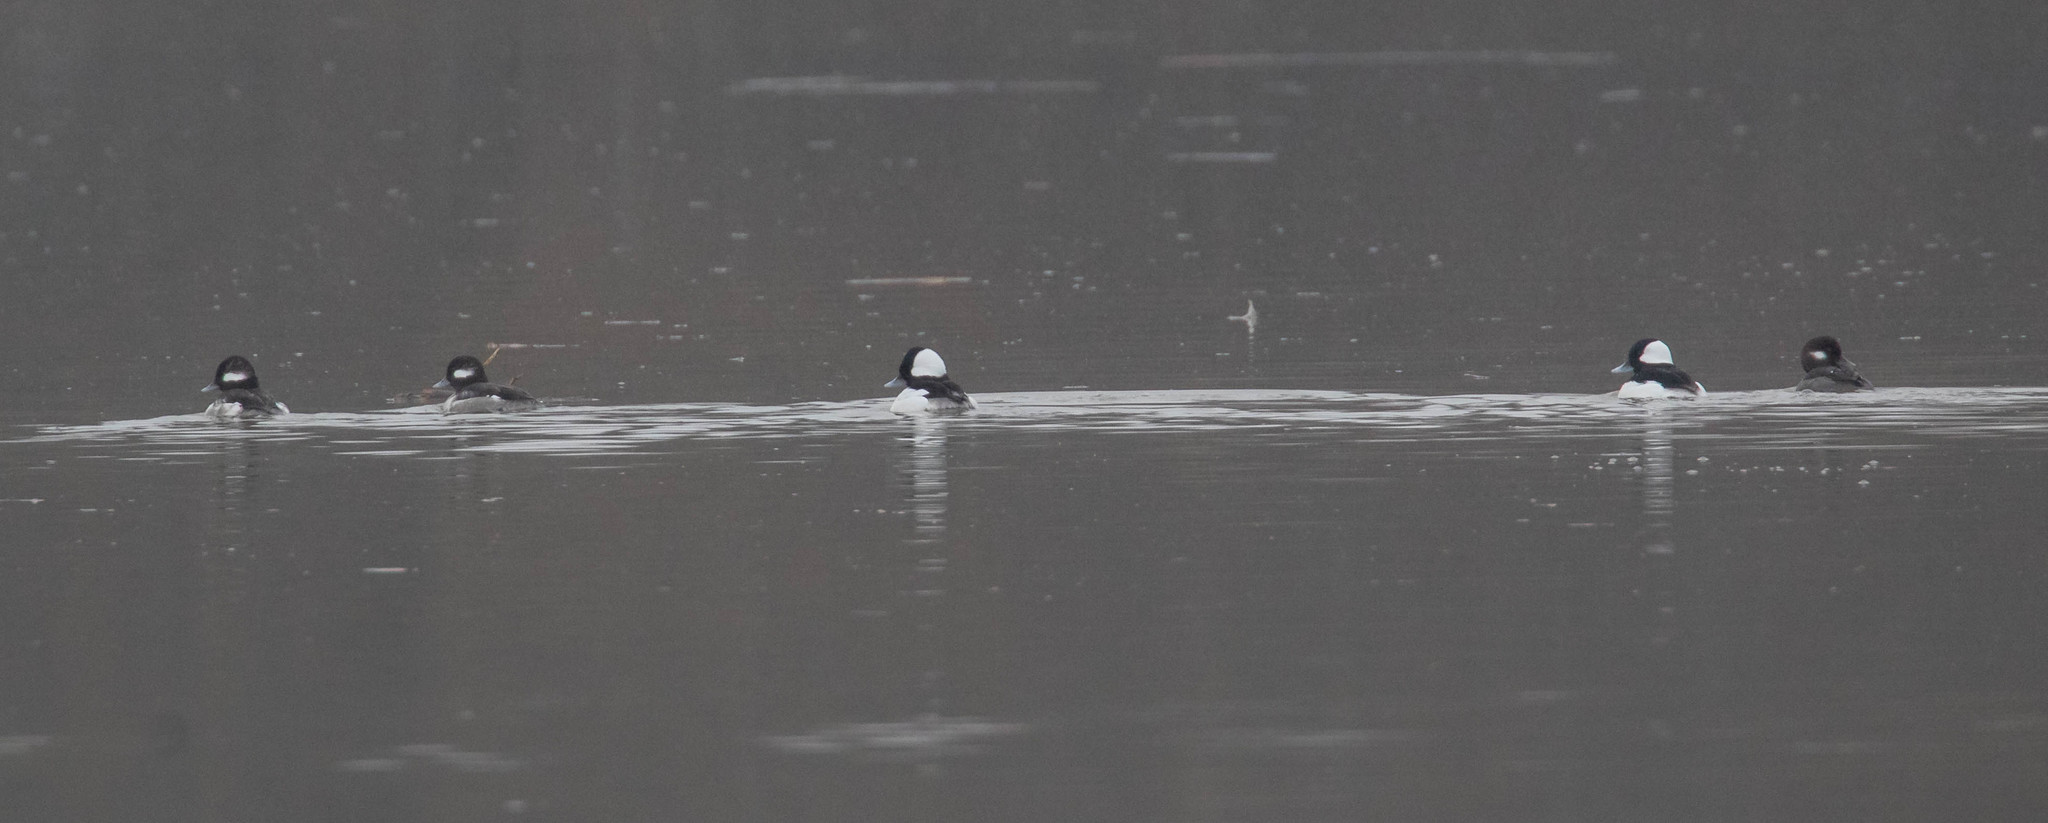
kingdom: Animalia
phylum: Chordata
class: Aves
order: Anseriformes
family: Anatidae
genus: Bucephala
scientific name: Bucephala albeola
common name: Bufflehead
